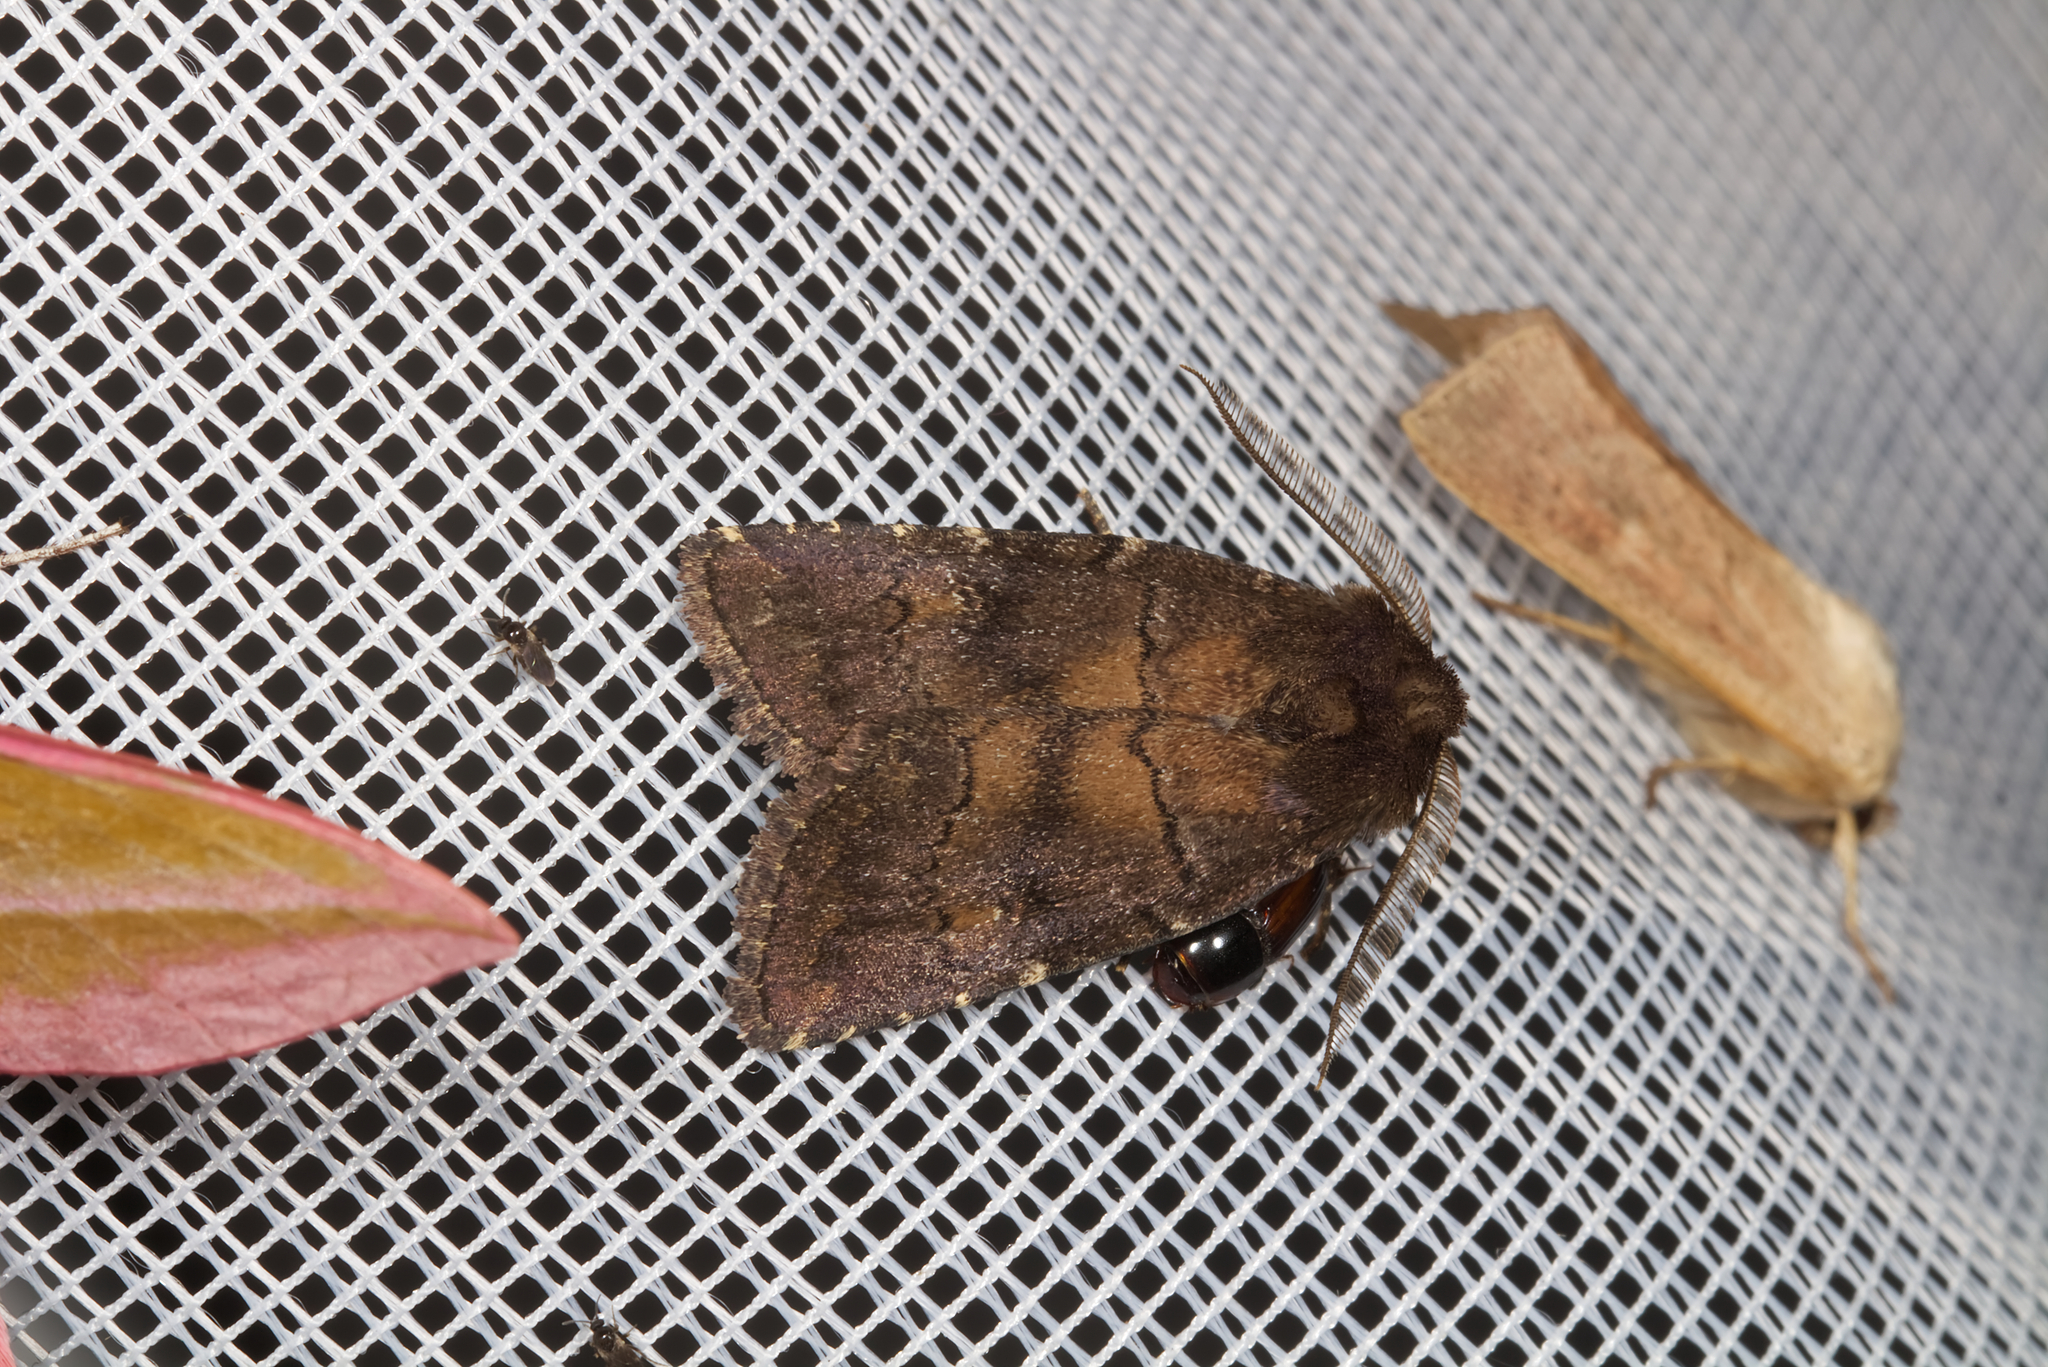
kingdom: Animalia
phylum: Arthropoda
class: Insecta
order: Lepidoptera
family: Noctuidae
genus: Charanyca
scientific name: Charanyca ferruginea
